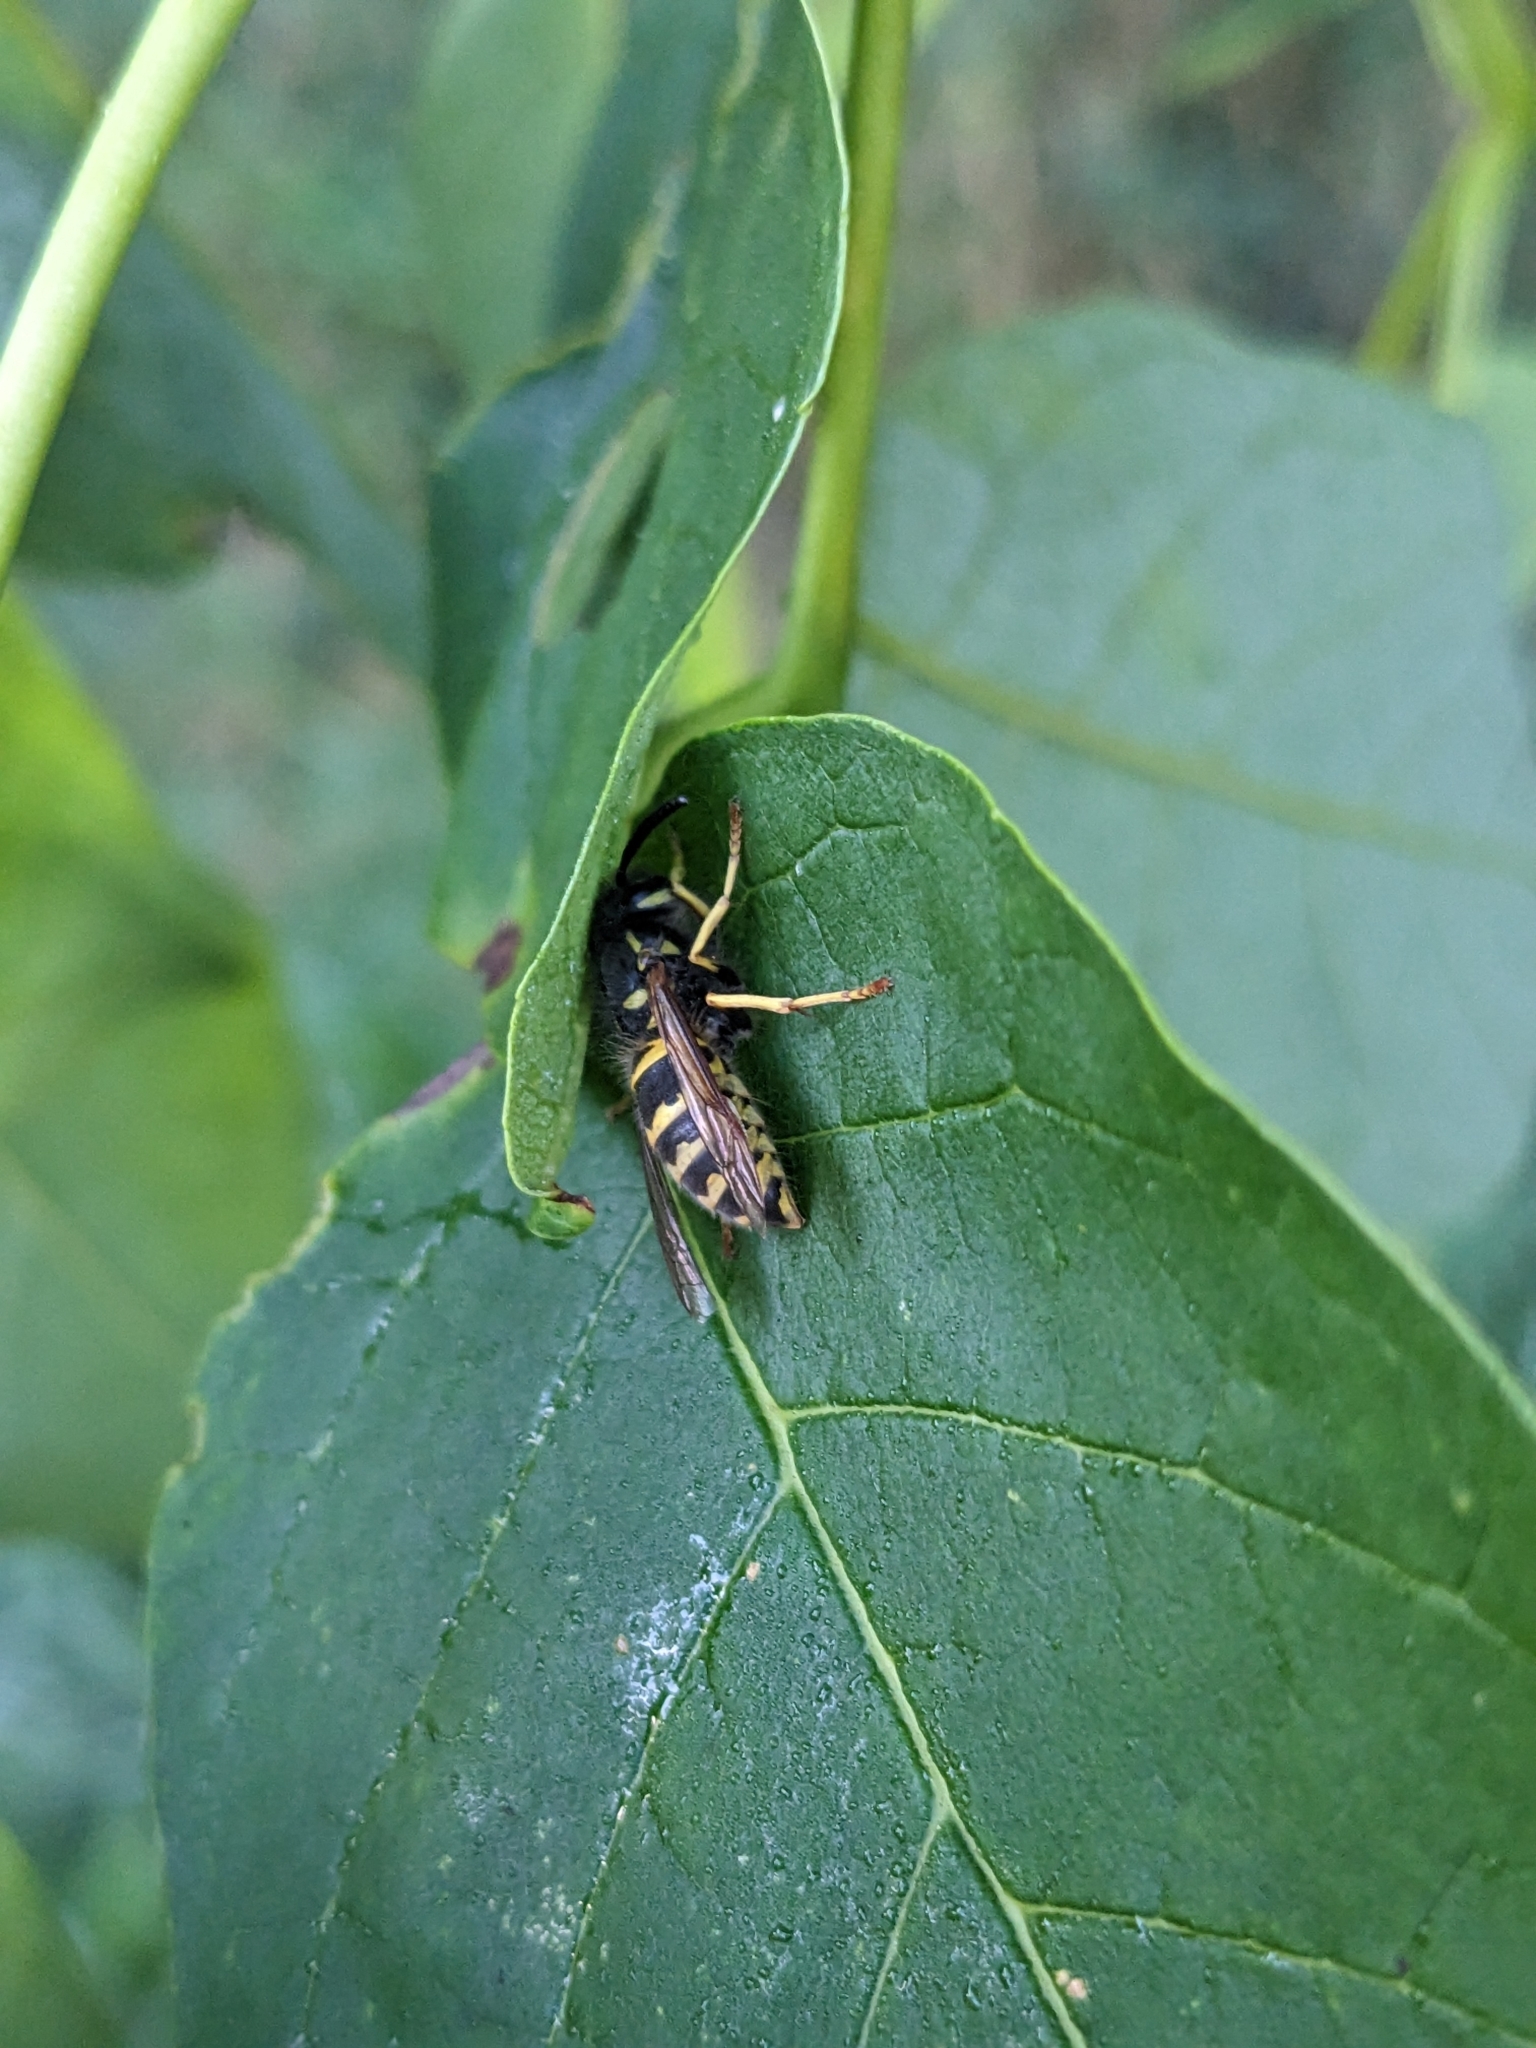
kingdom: Animalia
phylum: Arthropoda
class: Insecta
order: Hymenoptera
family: Vespidae
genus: Vespula
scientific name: Vespula maculifrons
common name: Eastern yellowjacket
